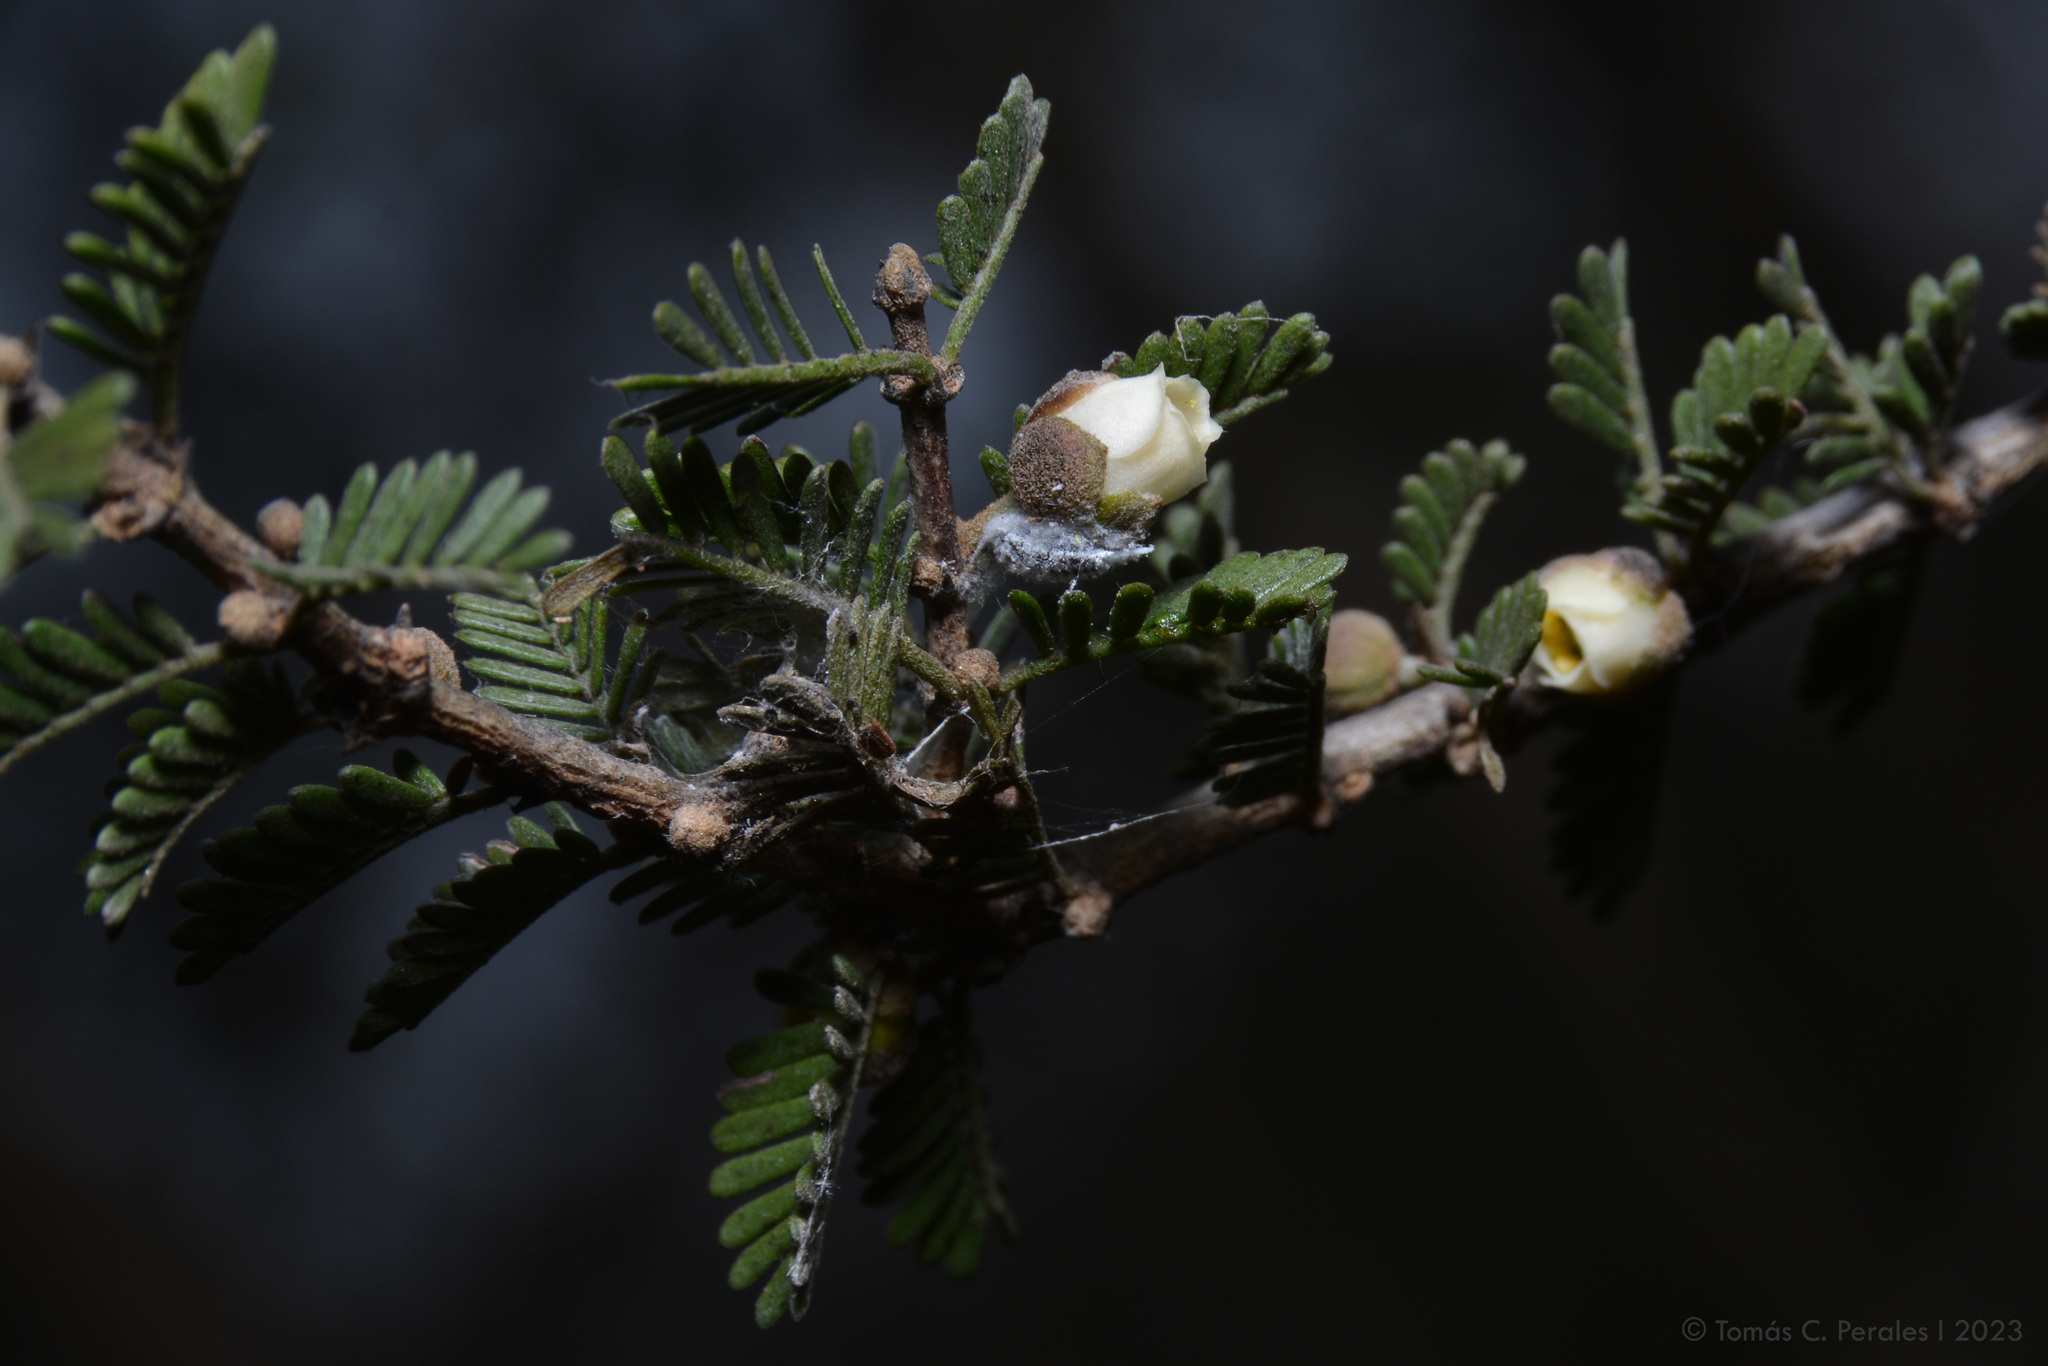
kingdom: Plantae
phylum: Tracheophyta
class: Magnoliopsida
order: Zygophyllales
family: Zygophyllaceae
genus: Porlieria
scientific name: Porlieria microphylla
